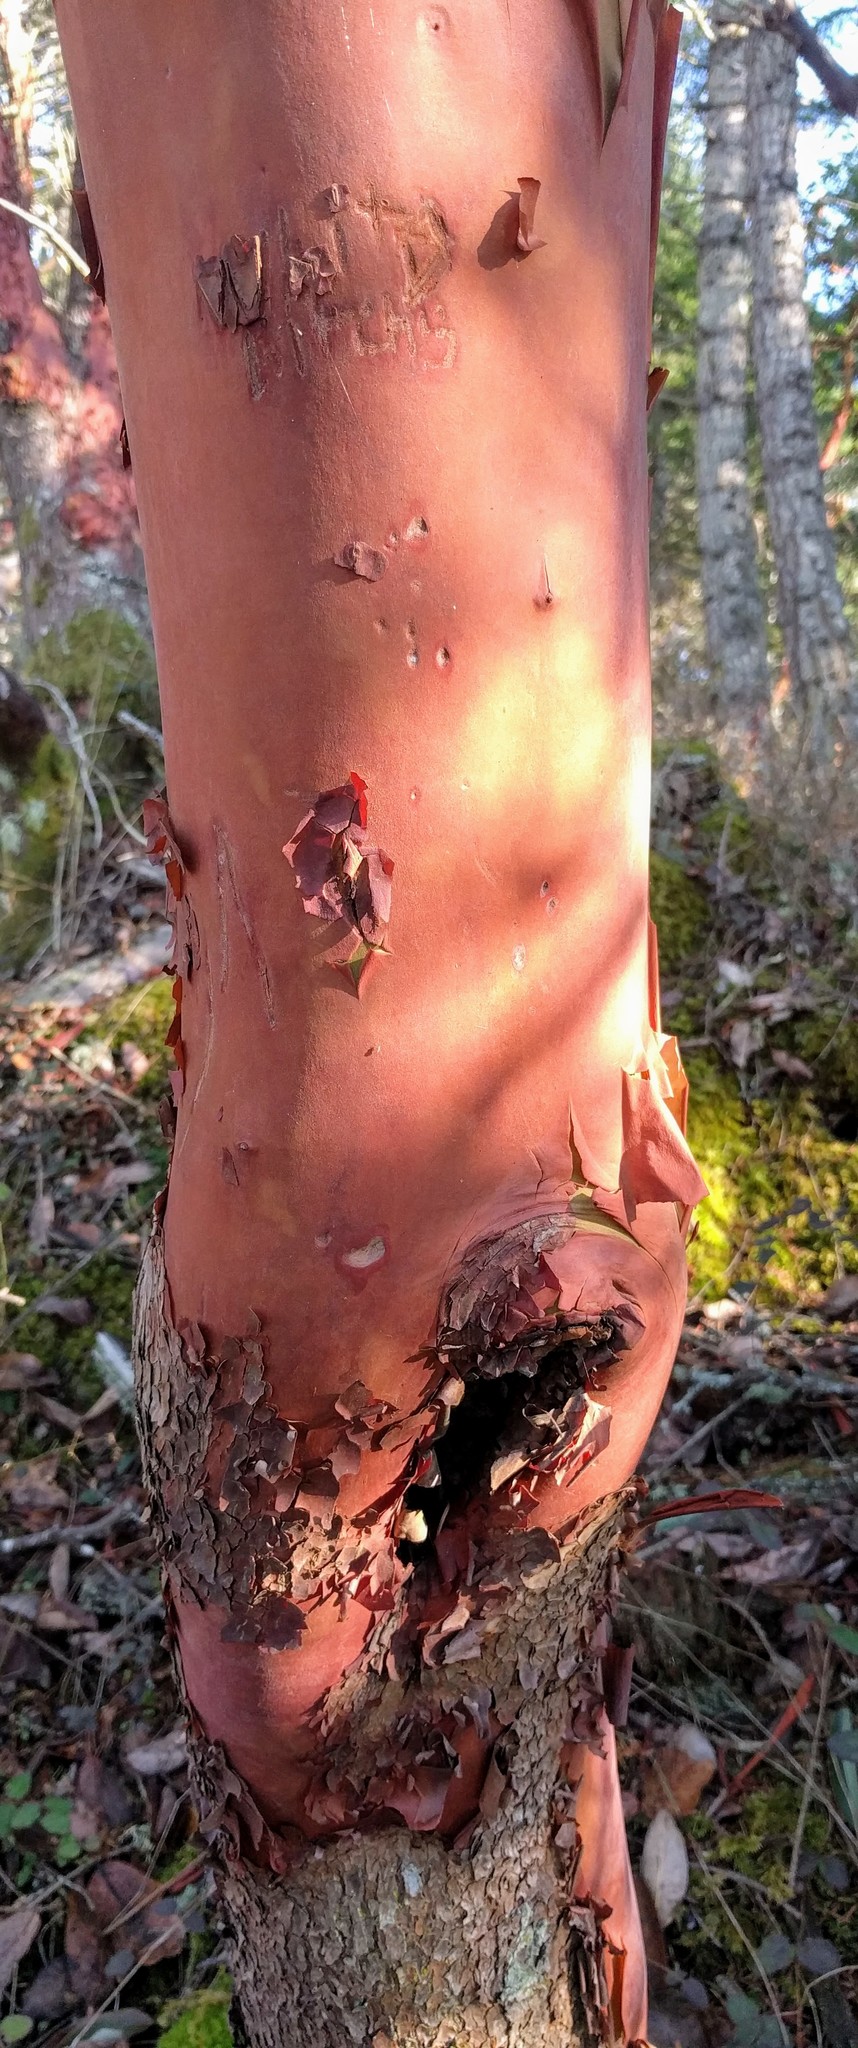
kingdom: Plantae
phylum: Tracheophyta
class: Magnoliopsida
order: Ericales
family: Ericaceae
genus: Arbutus
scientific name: Arbutus menziesii
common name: Pacific madrone
